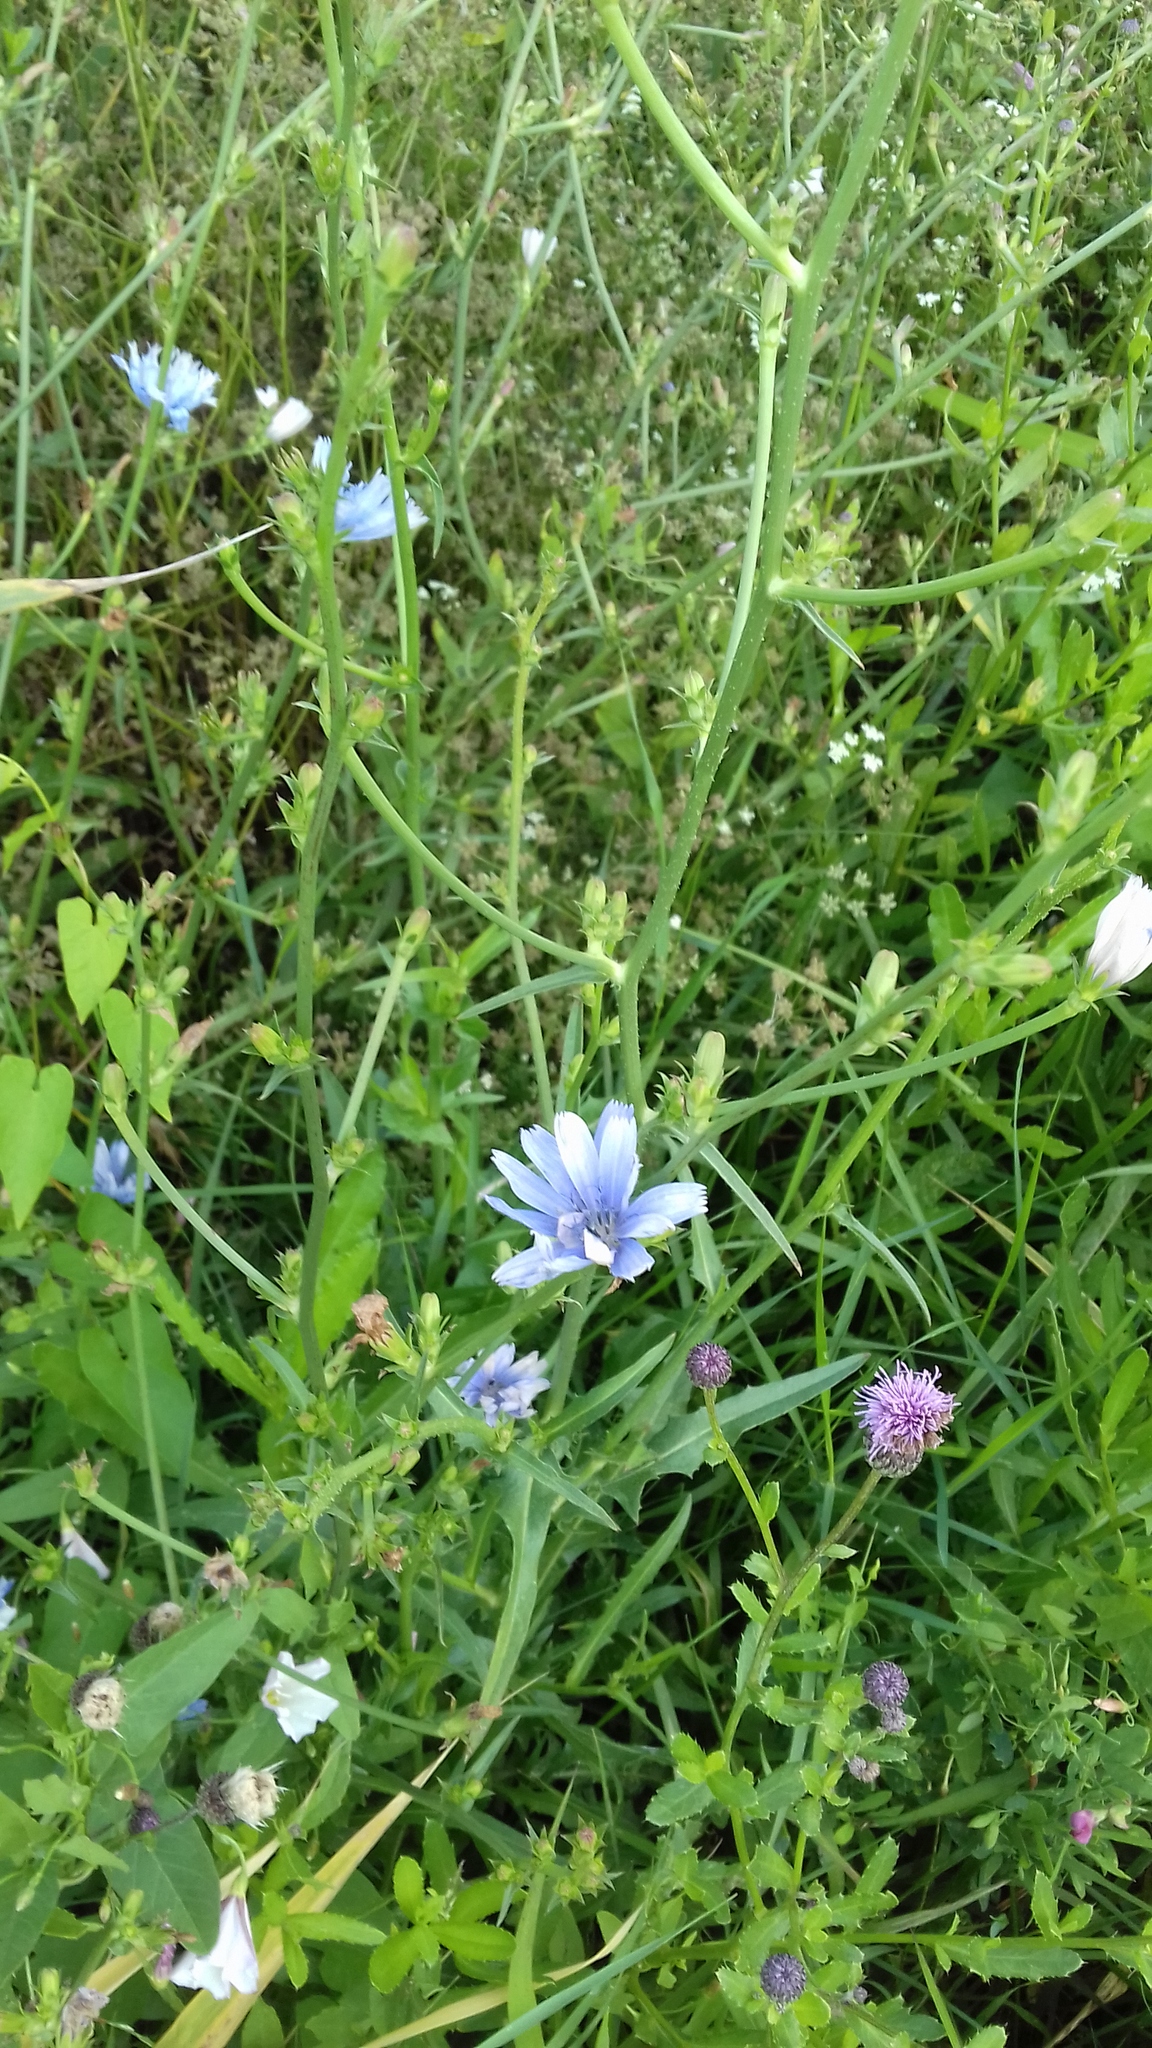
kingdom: Plantae
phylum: Tracheophyta
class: Magnoliopsida
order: Asterales
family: Asteraceae
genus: Cichorium
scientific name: Cichorium intybus
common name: Chicory
